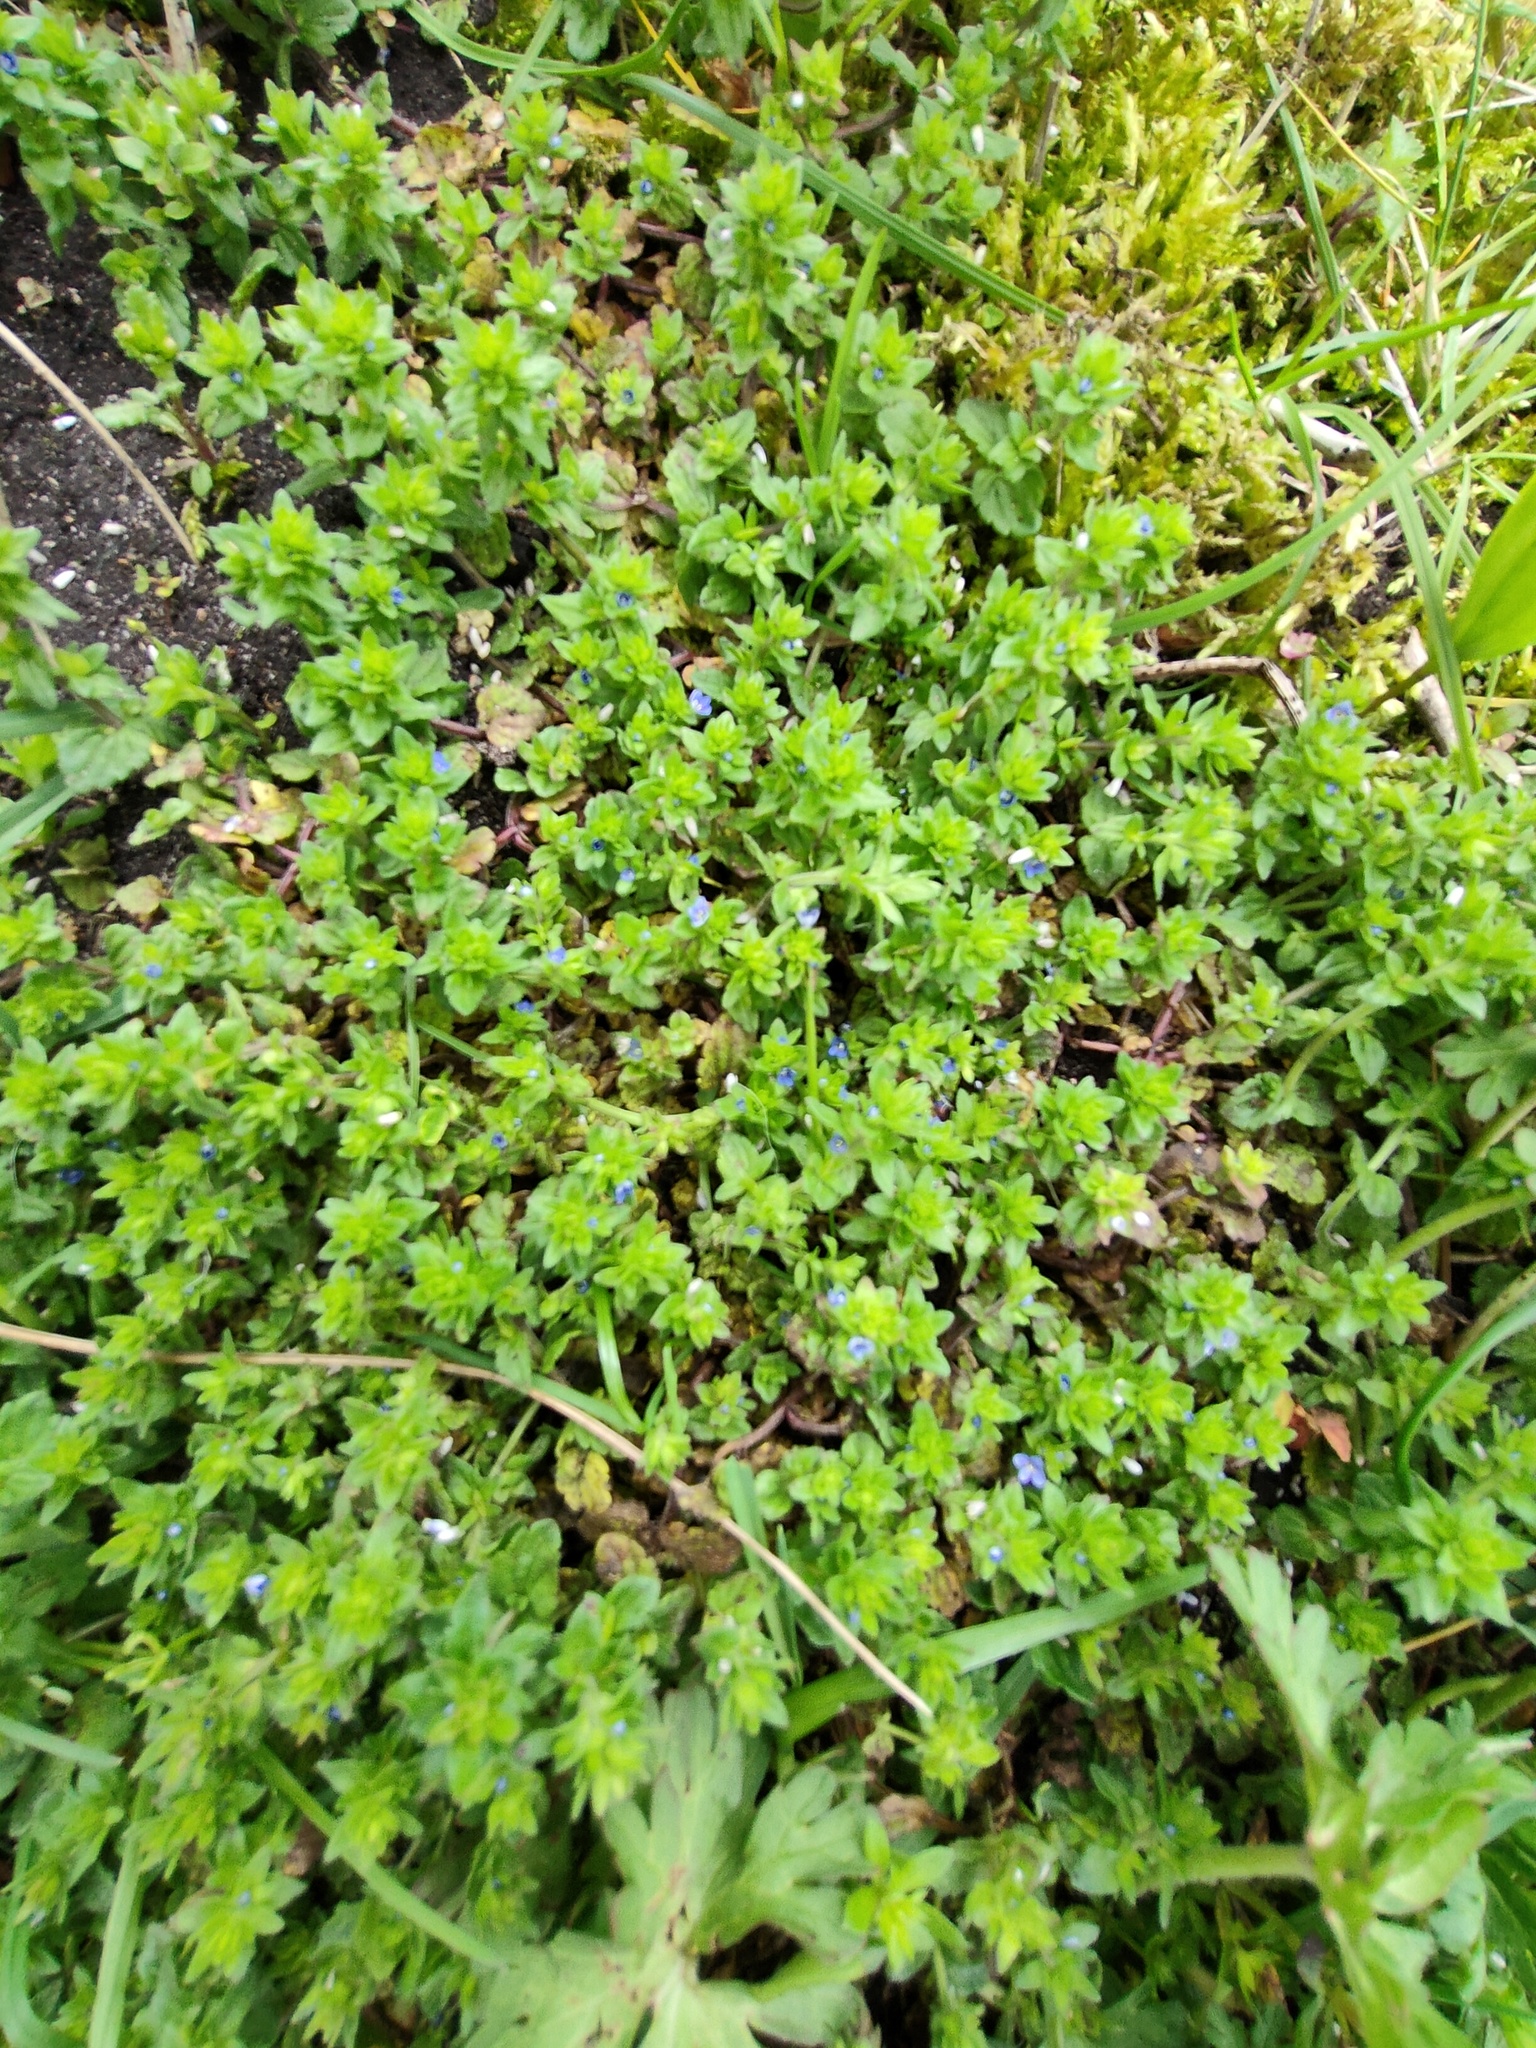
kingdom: Plantae
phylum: Tracheophyta
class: Magnoliopsida
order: Lamiales
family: Plantaginaceae
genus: Veronica
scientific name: Veronica arvensis
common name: Corn speedwell
